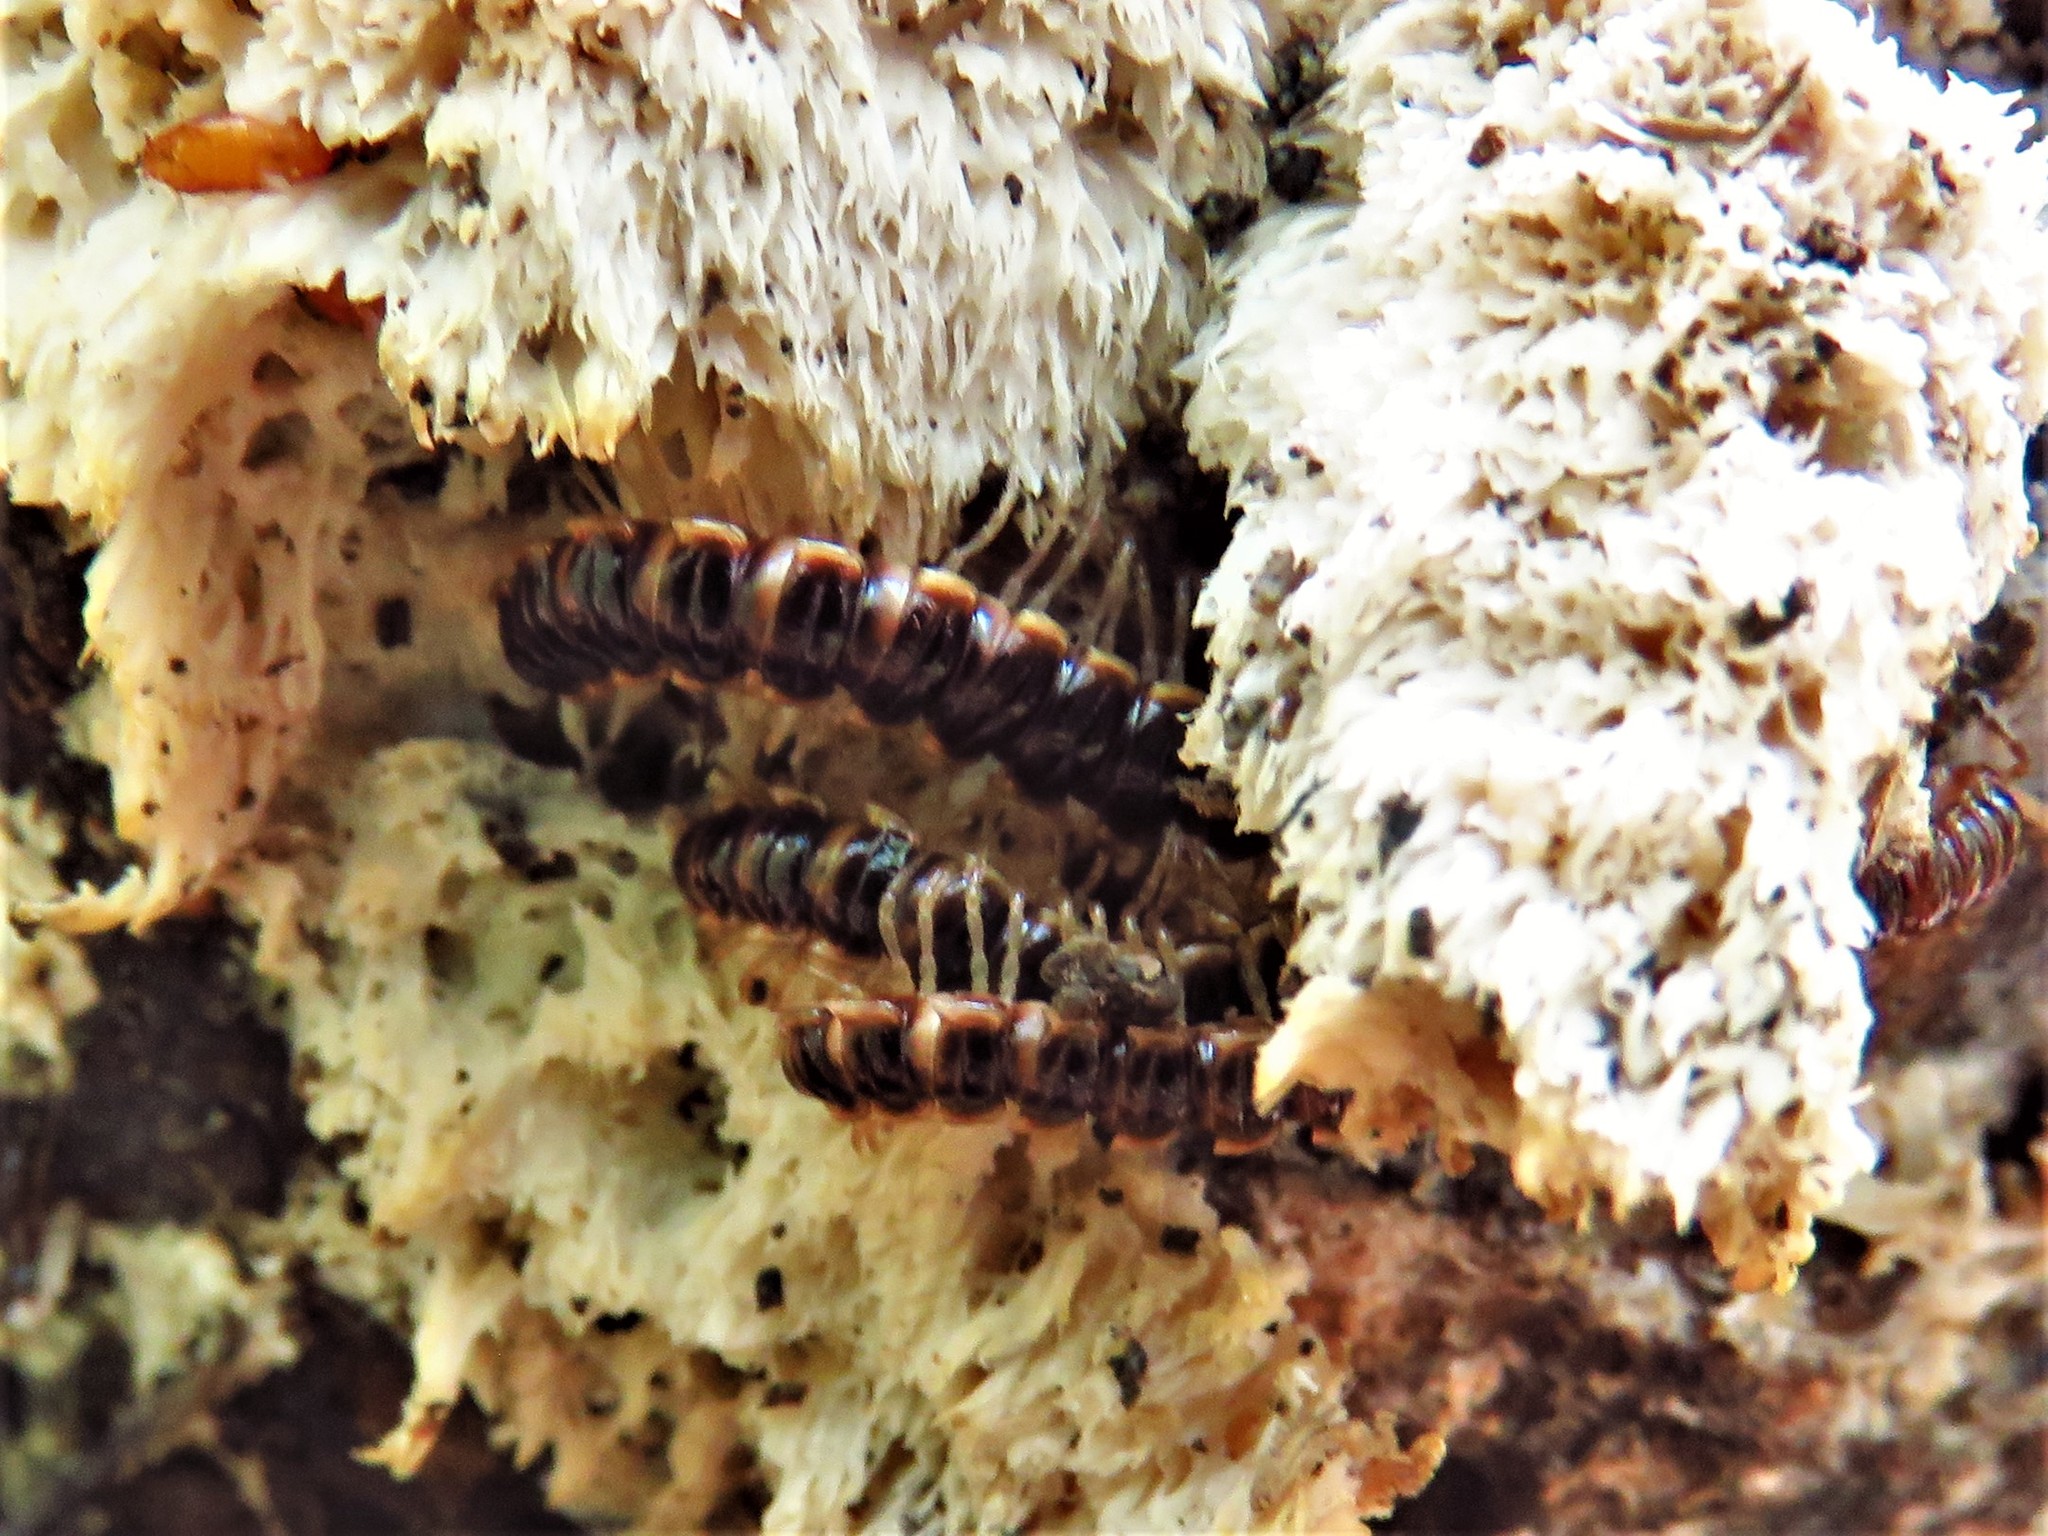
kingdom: Animalia
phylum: Arthropoda
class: Diplopoda
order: Polydesmida
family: Paradoxosomatidae
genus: Oxidus
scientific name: Oxidus gracilis
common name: Greenhouse millipede
